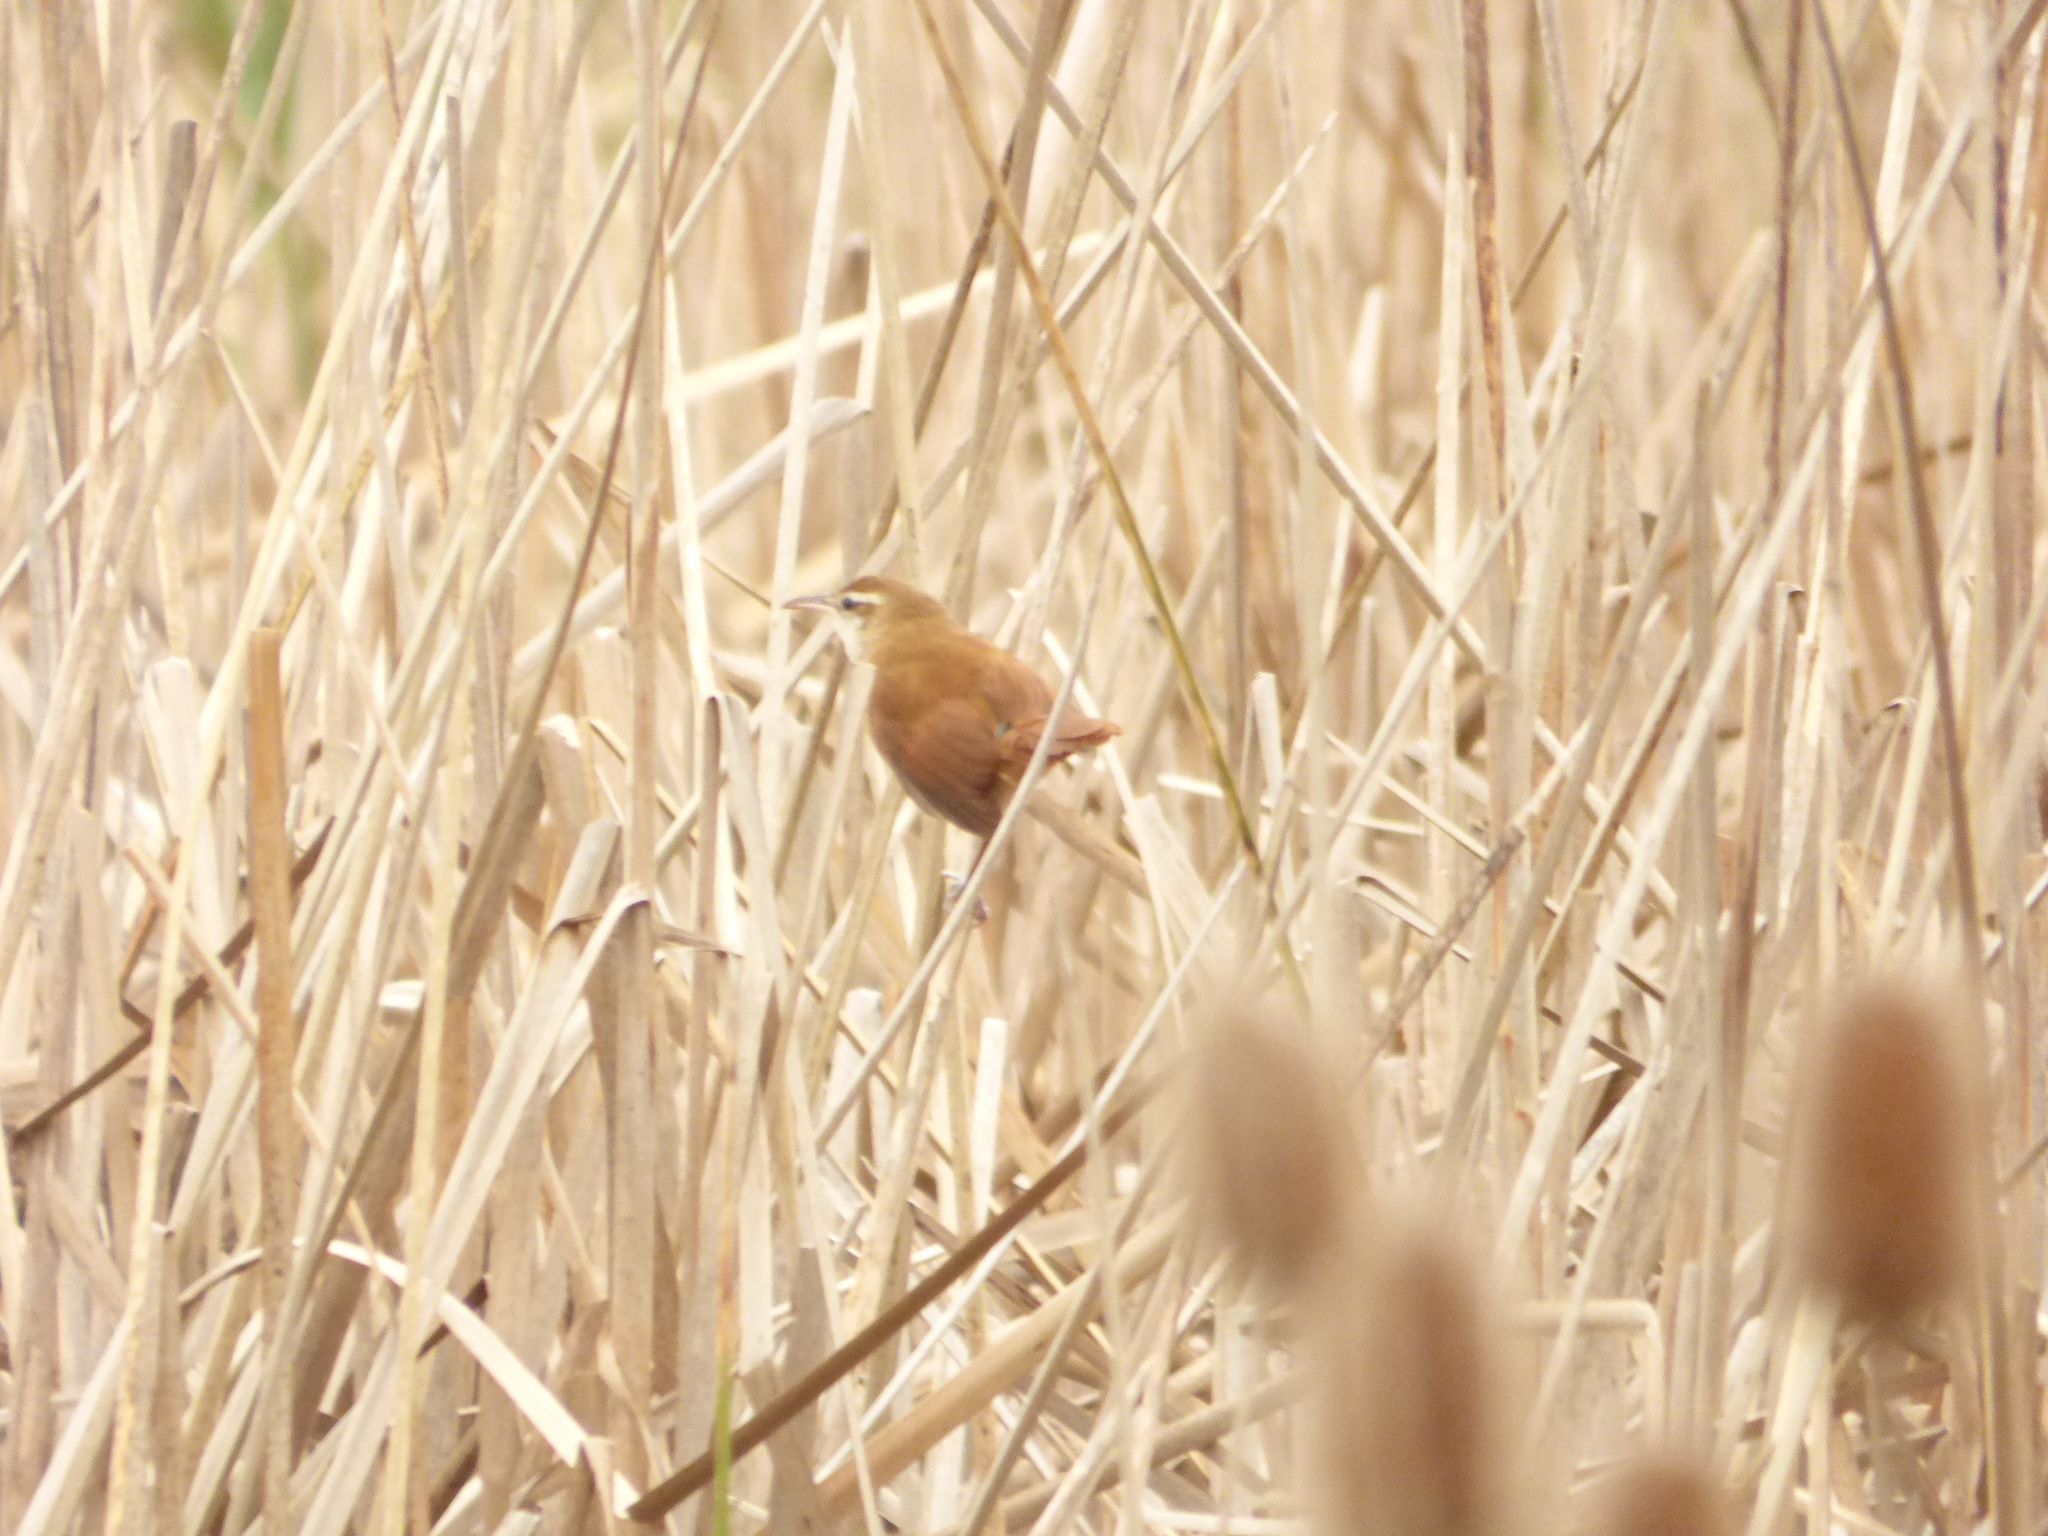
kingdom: Animalia
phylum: Chordata
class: Aves
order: Passeriformes
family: Furnariidae
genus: Limnornis
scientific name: Limnornis curvirostris
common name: Curve-billed reedhaunter
